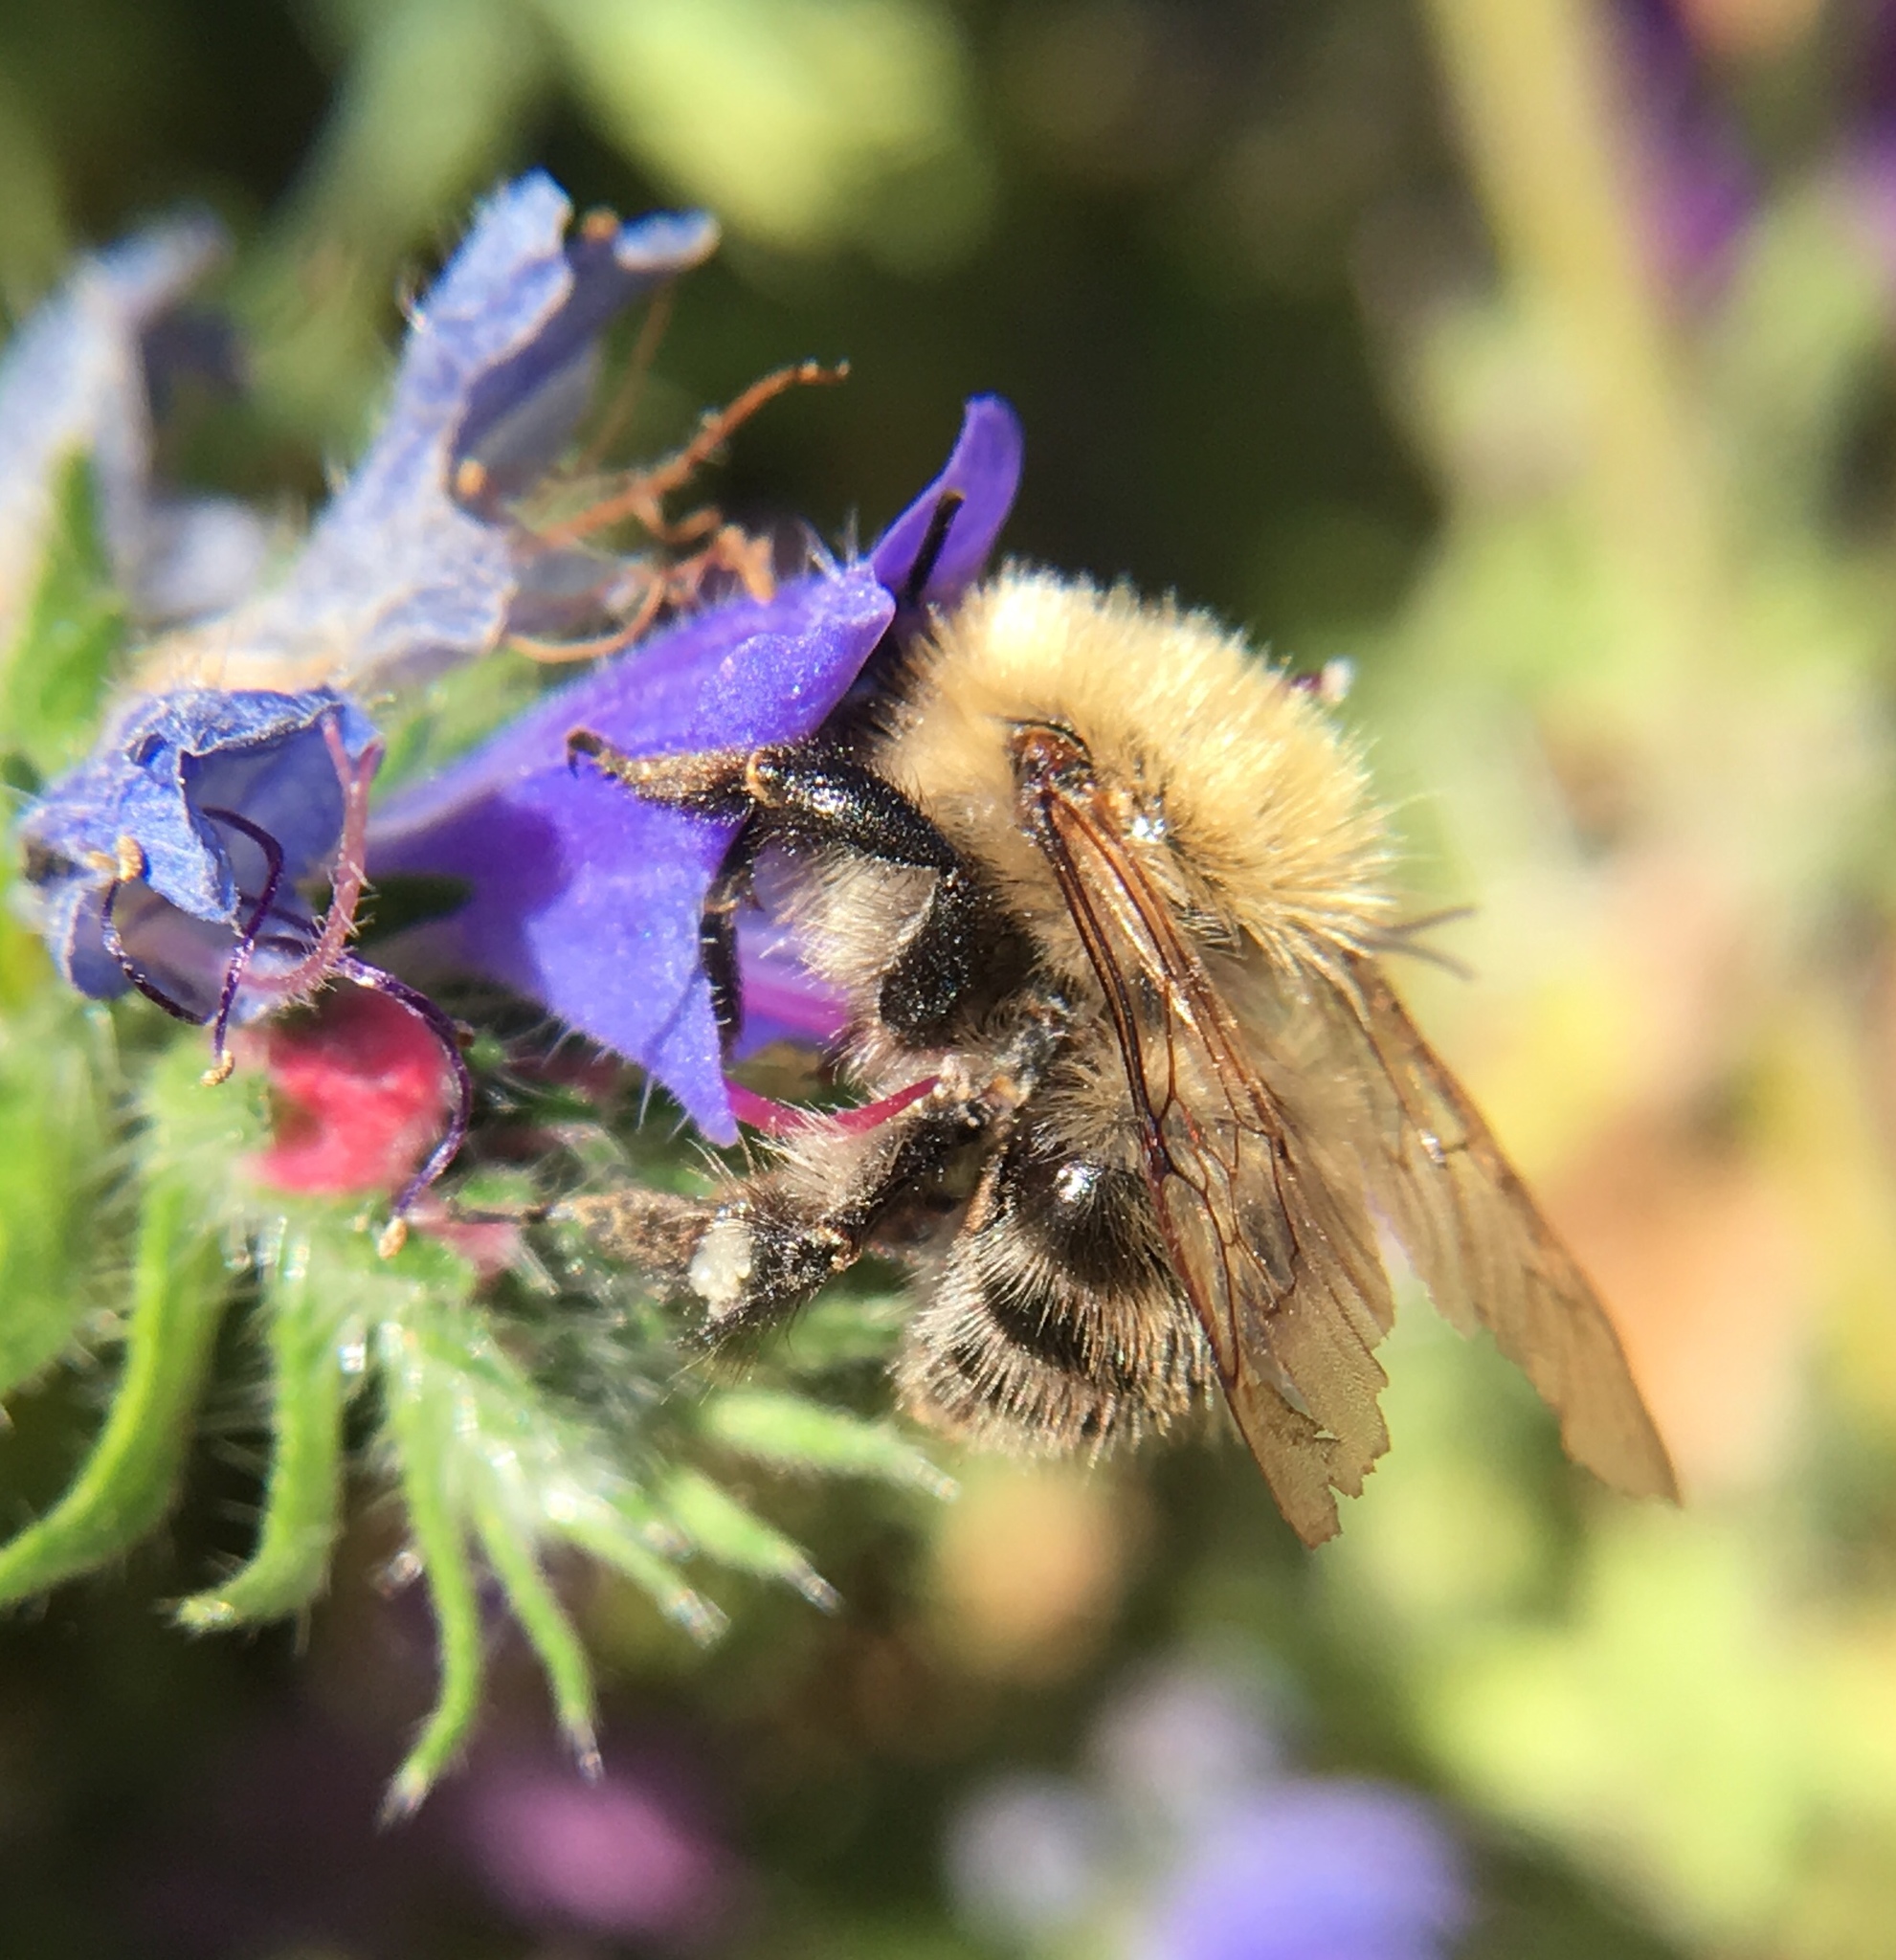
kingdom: Animalia
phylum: Arthropoda
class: Insecta
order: Hymenoptera
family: Apidae
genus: Bombus
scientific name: Bombus pascuorum
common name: Common carder bee
